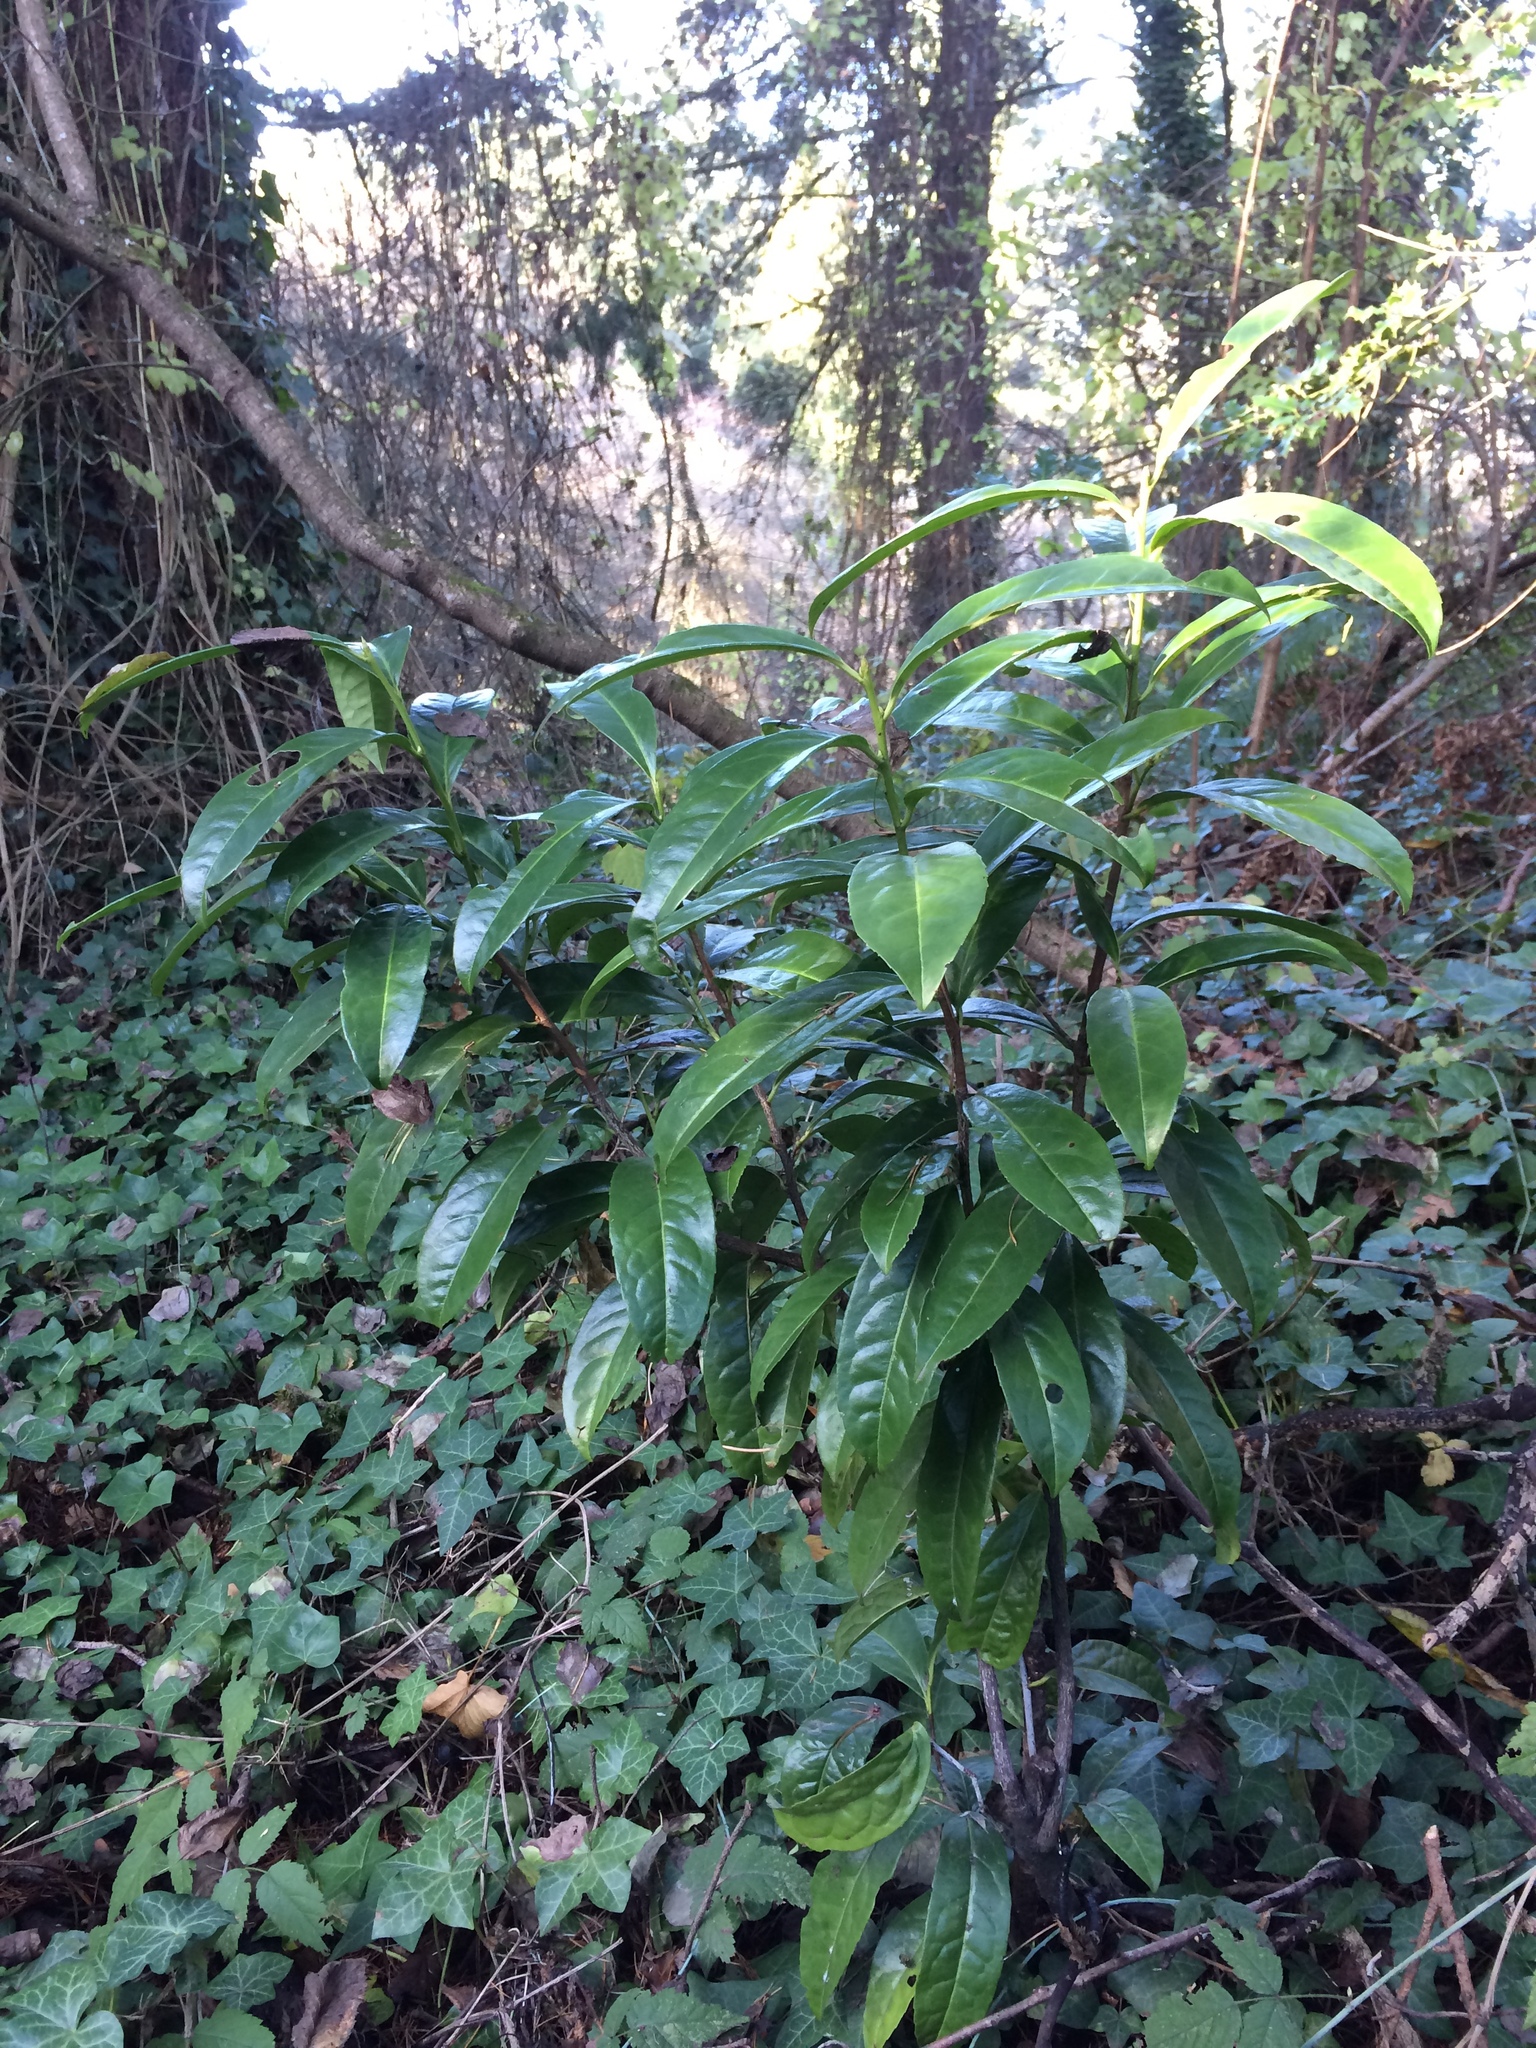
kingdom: Plantae
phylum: Tracheophyta
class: Magnoliopsida
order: Rosales
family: Rosaceae
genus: Prunus
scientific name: Prunus laurocerasus
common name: Cherry laurel
